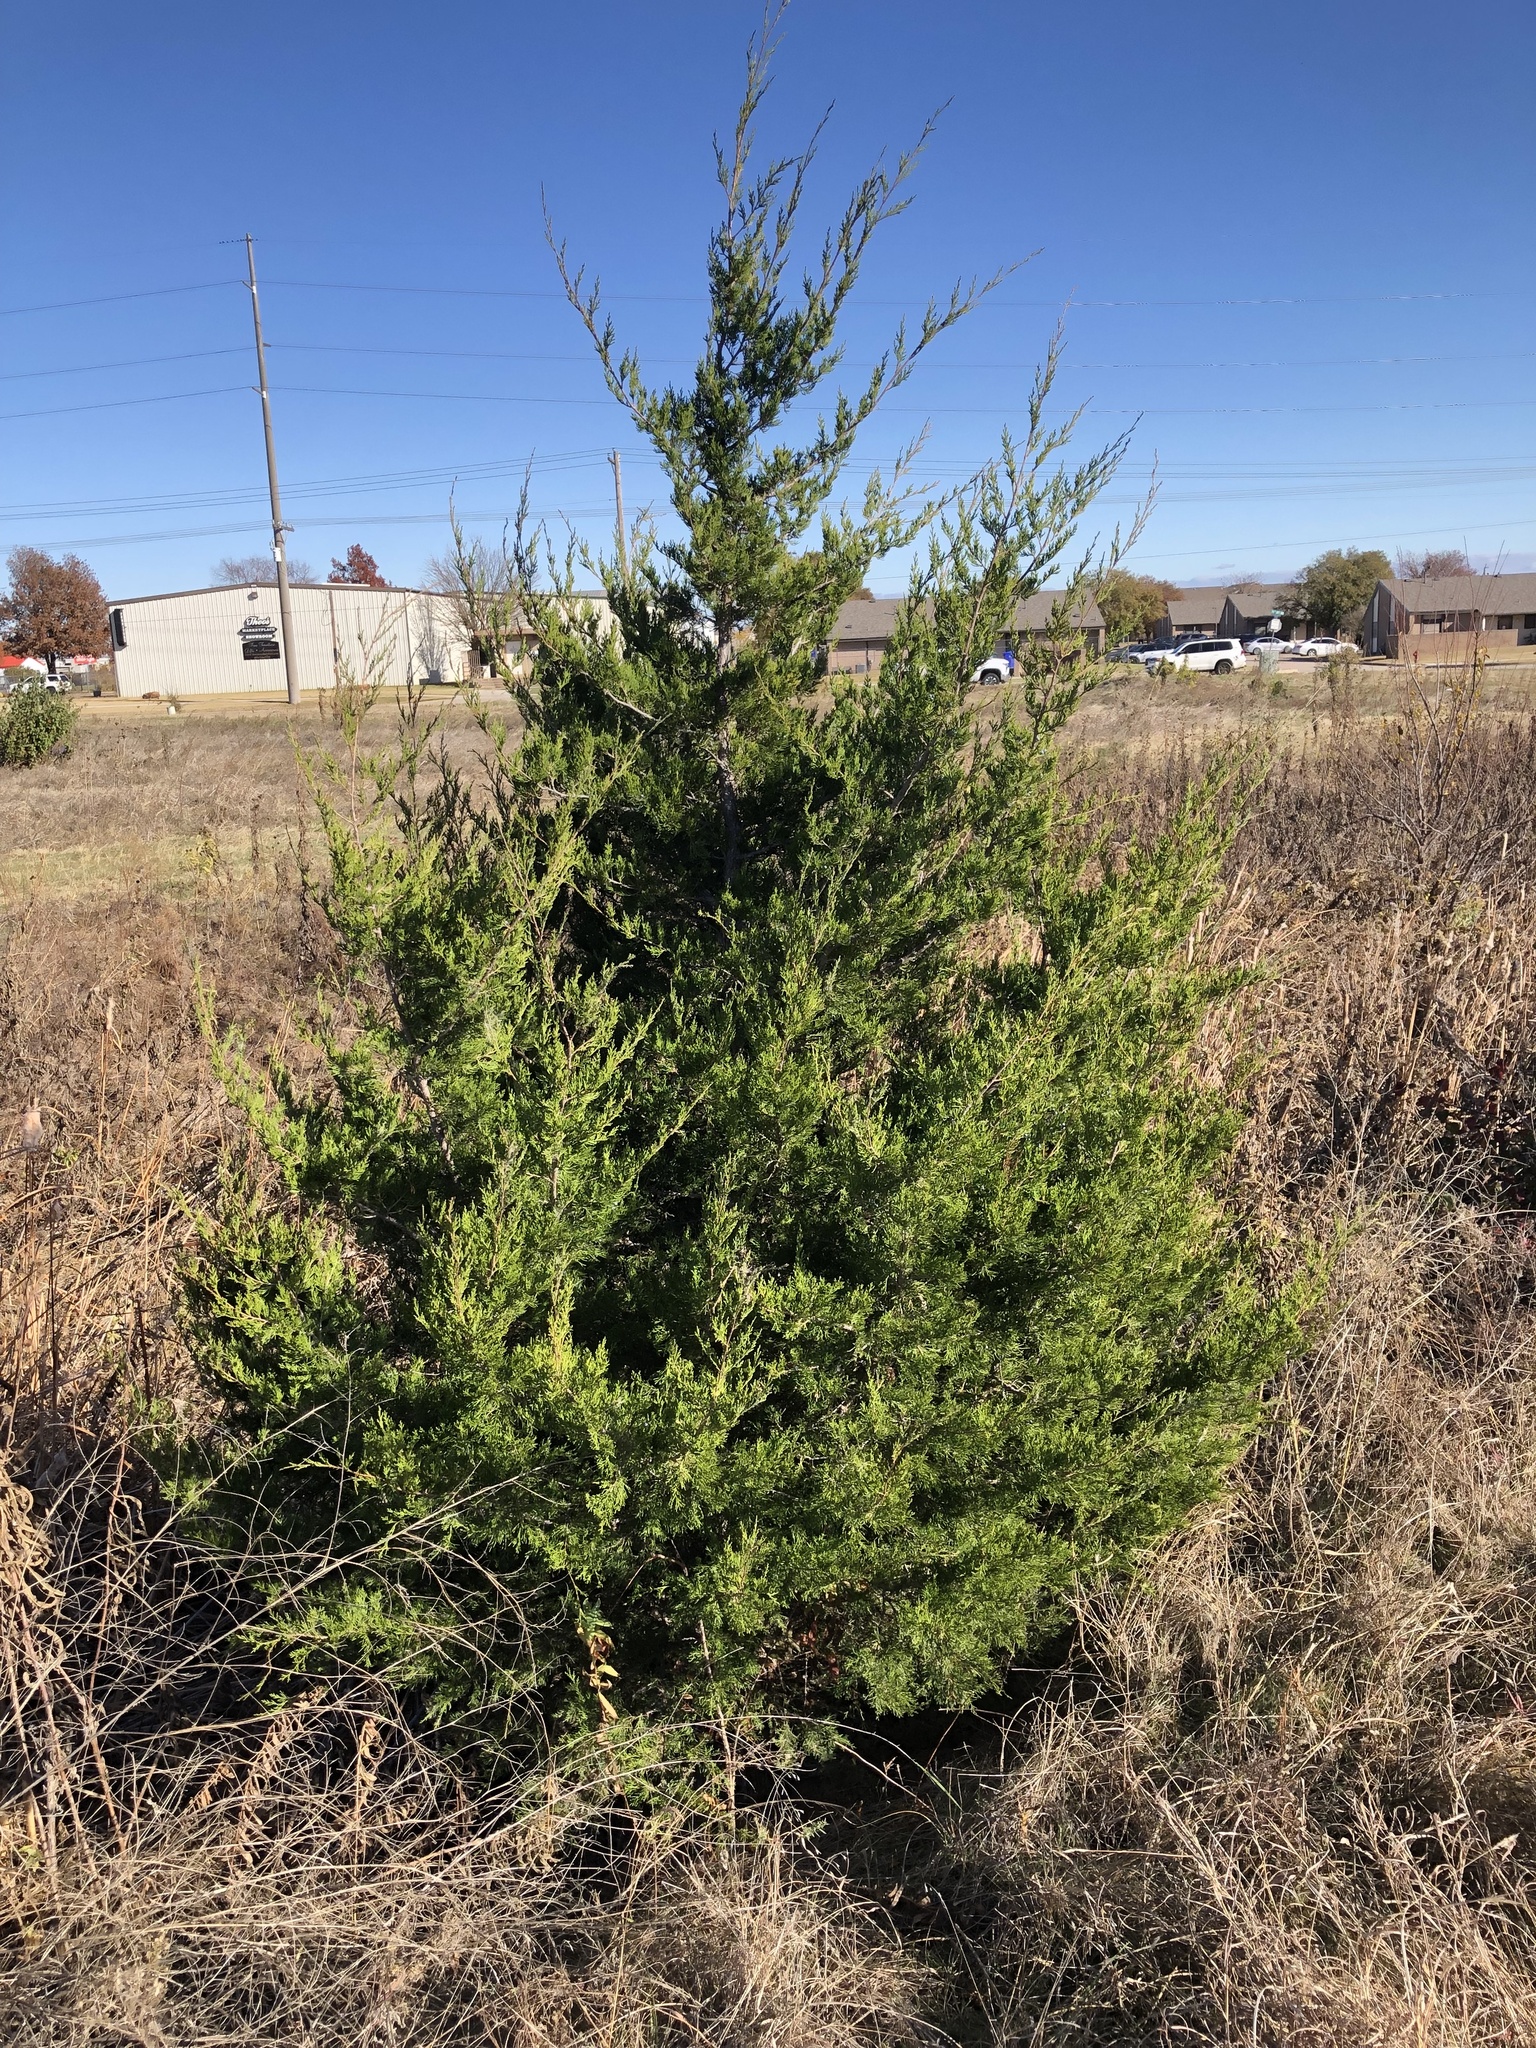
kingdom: Plantae
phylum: Tracheophyta
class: Pinopsida
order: Pinales
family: Cupressaceae
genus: Juniperus
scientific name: Juniperus virginiana
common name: Red juniper
